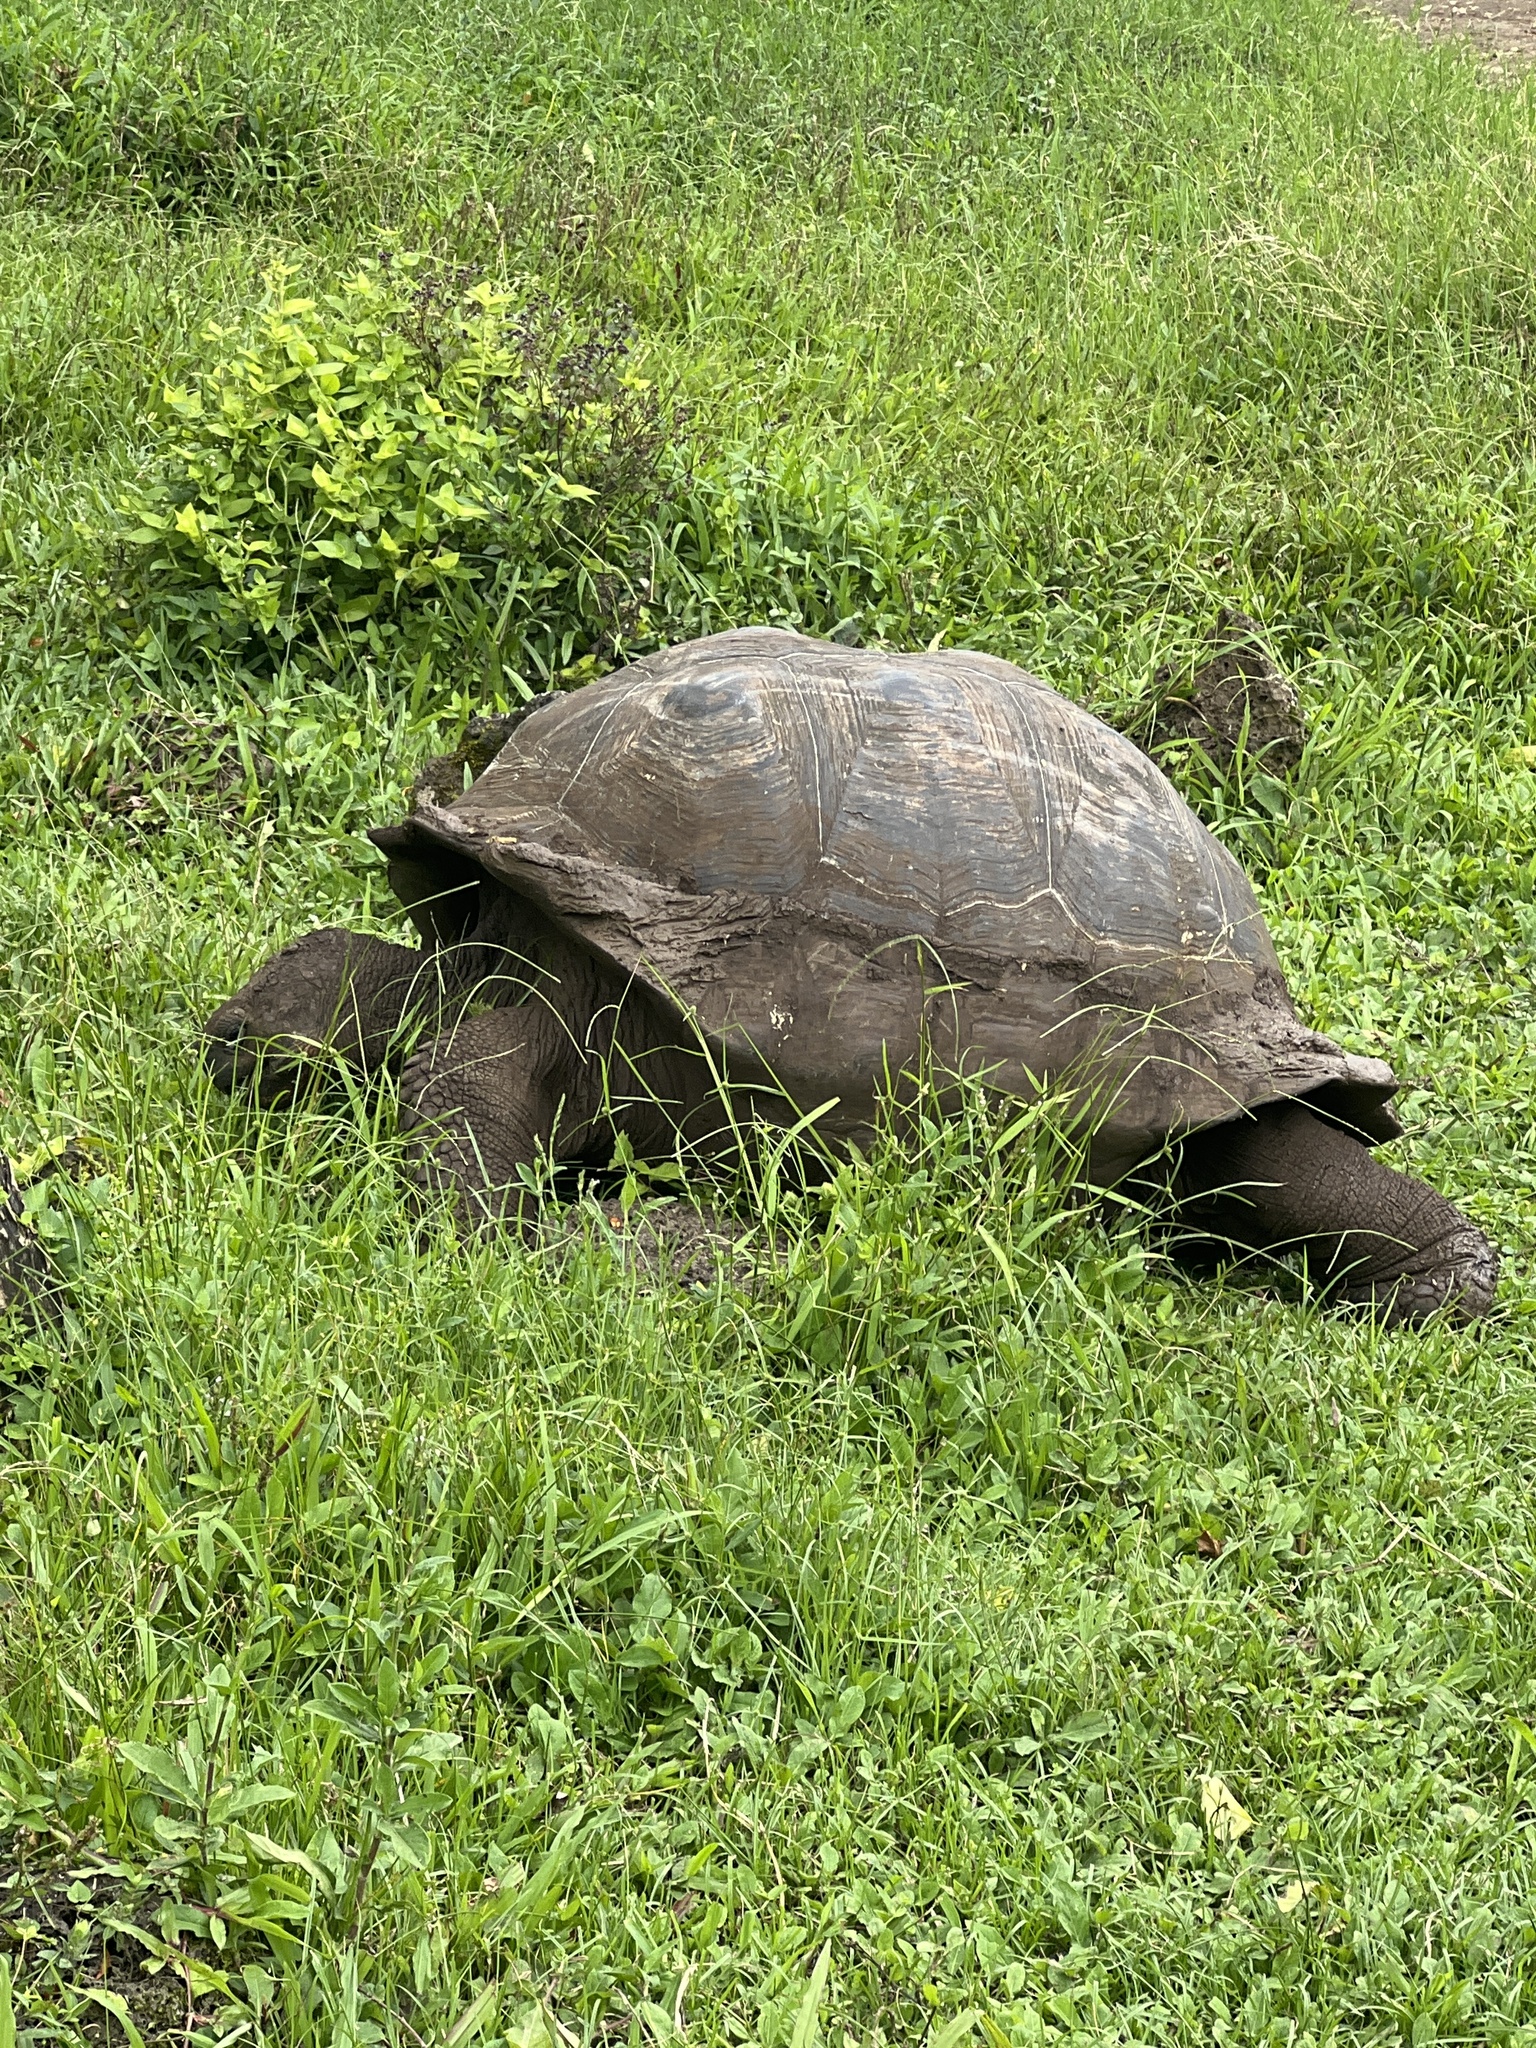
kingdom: Animalia
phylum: Chordata
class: Testudines
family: Testudinidae
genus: Chelonoidis
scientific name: Chelonoidis niger
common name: Charles island giant tortoise
